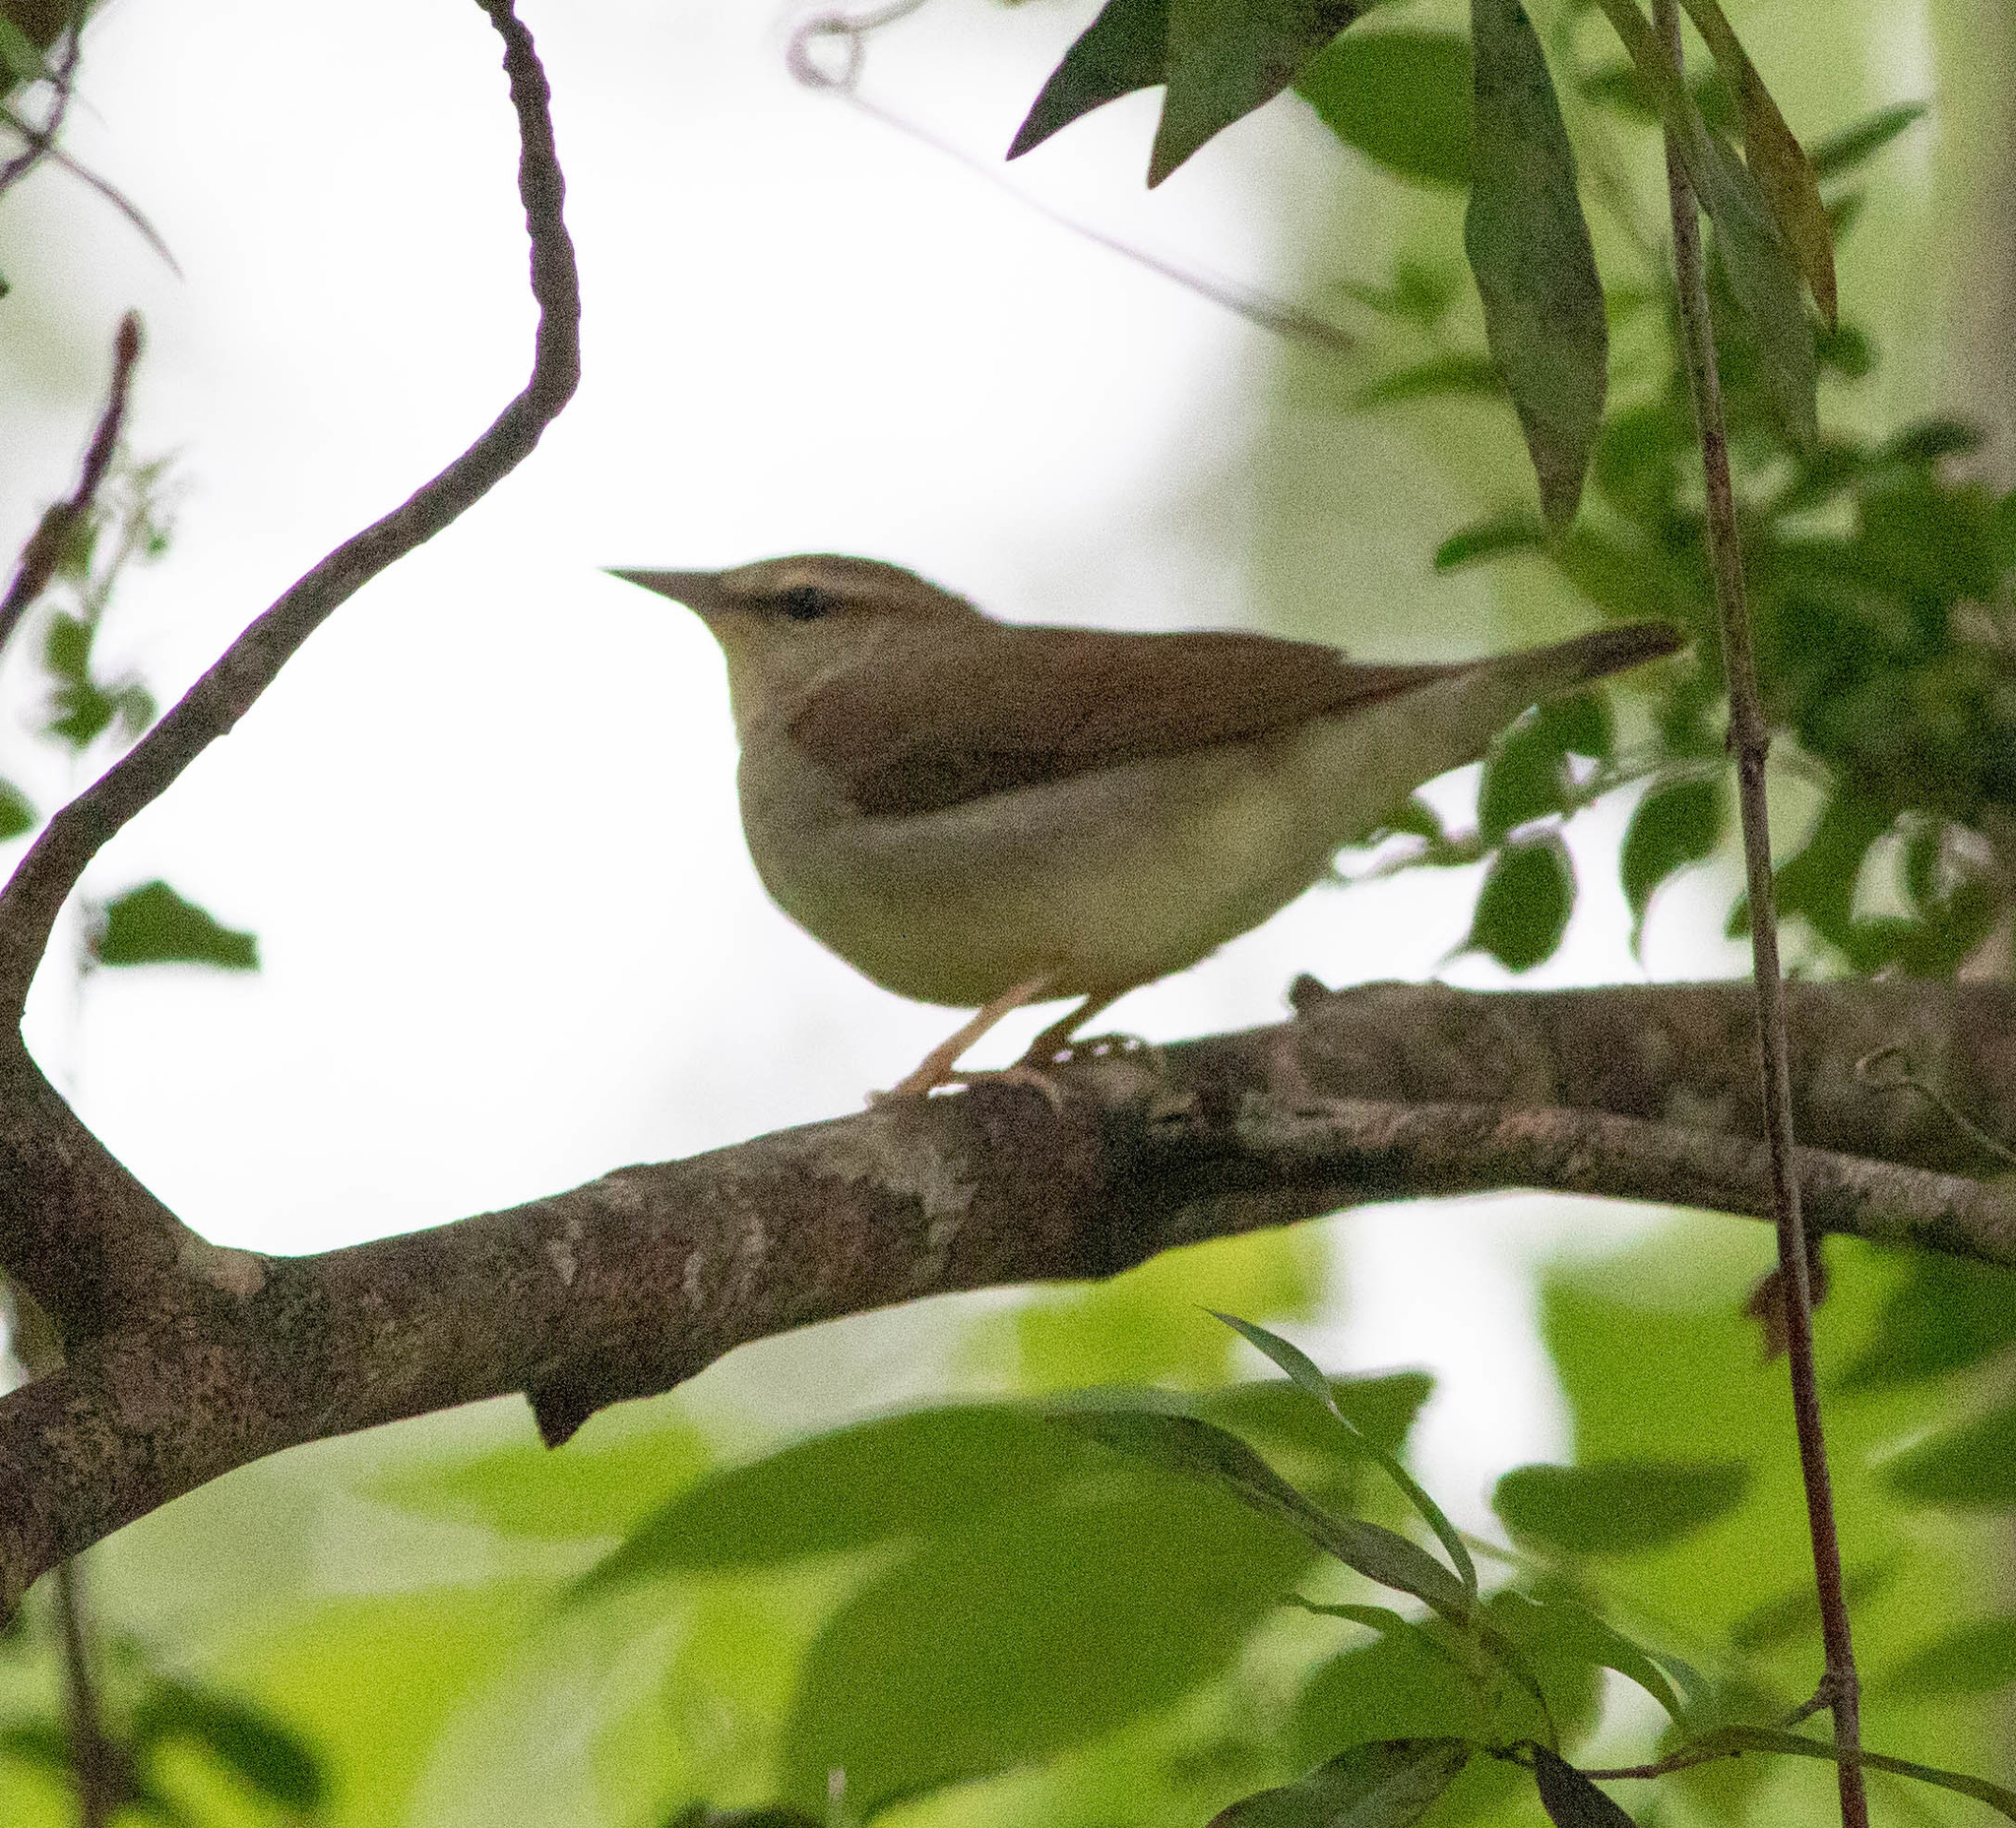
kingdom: Animalia
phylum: Chordata
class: Aves
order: Passeriformes
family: Parulidae
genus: Limnothlypis
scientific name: Limnothlypis swainsonii
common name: Swainson's warbler
